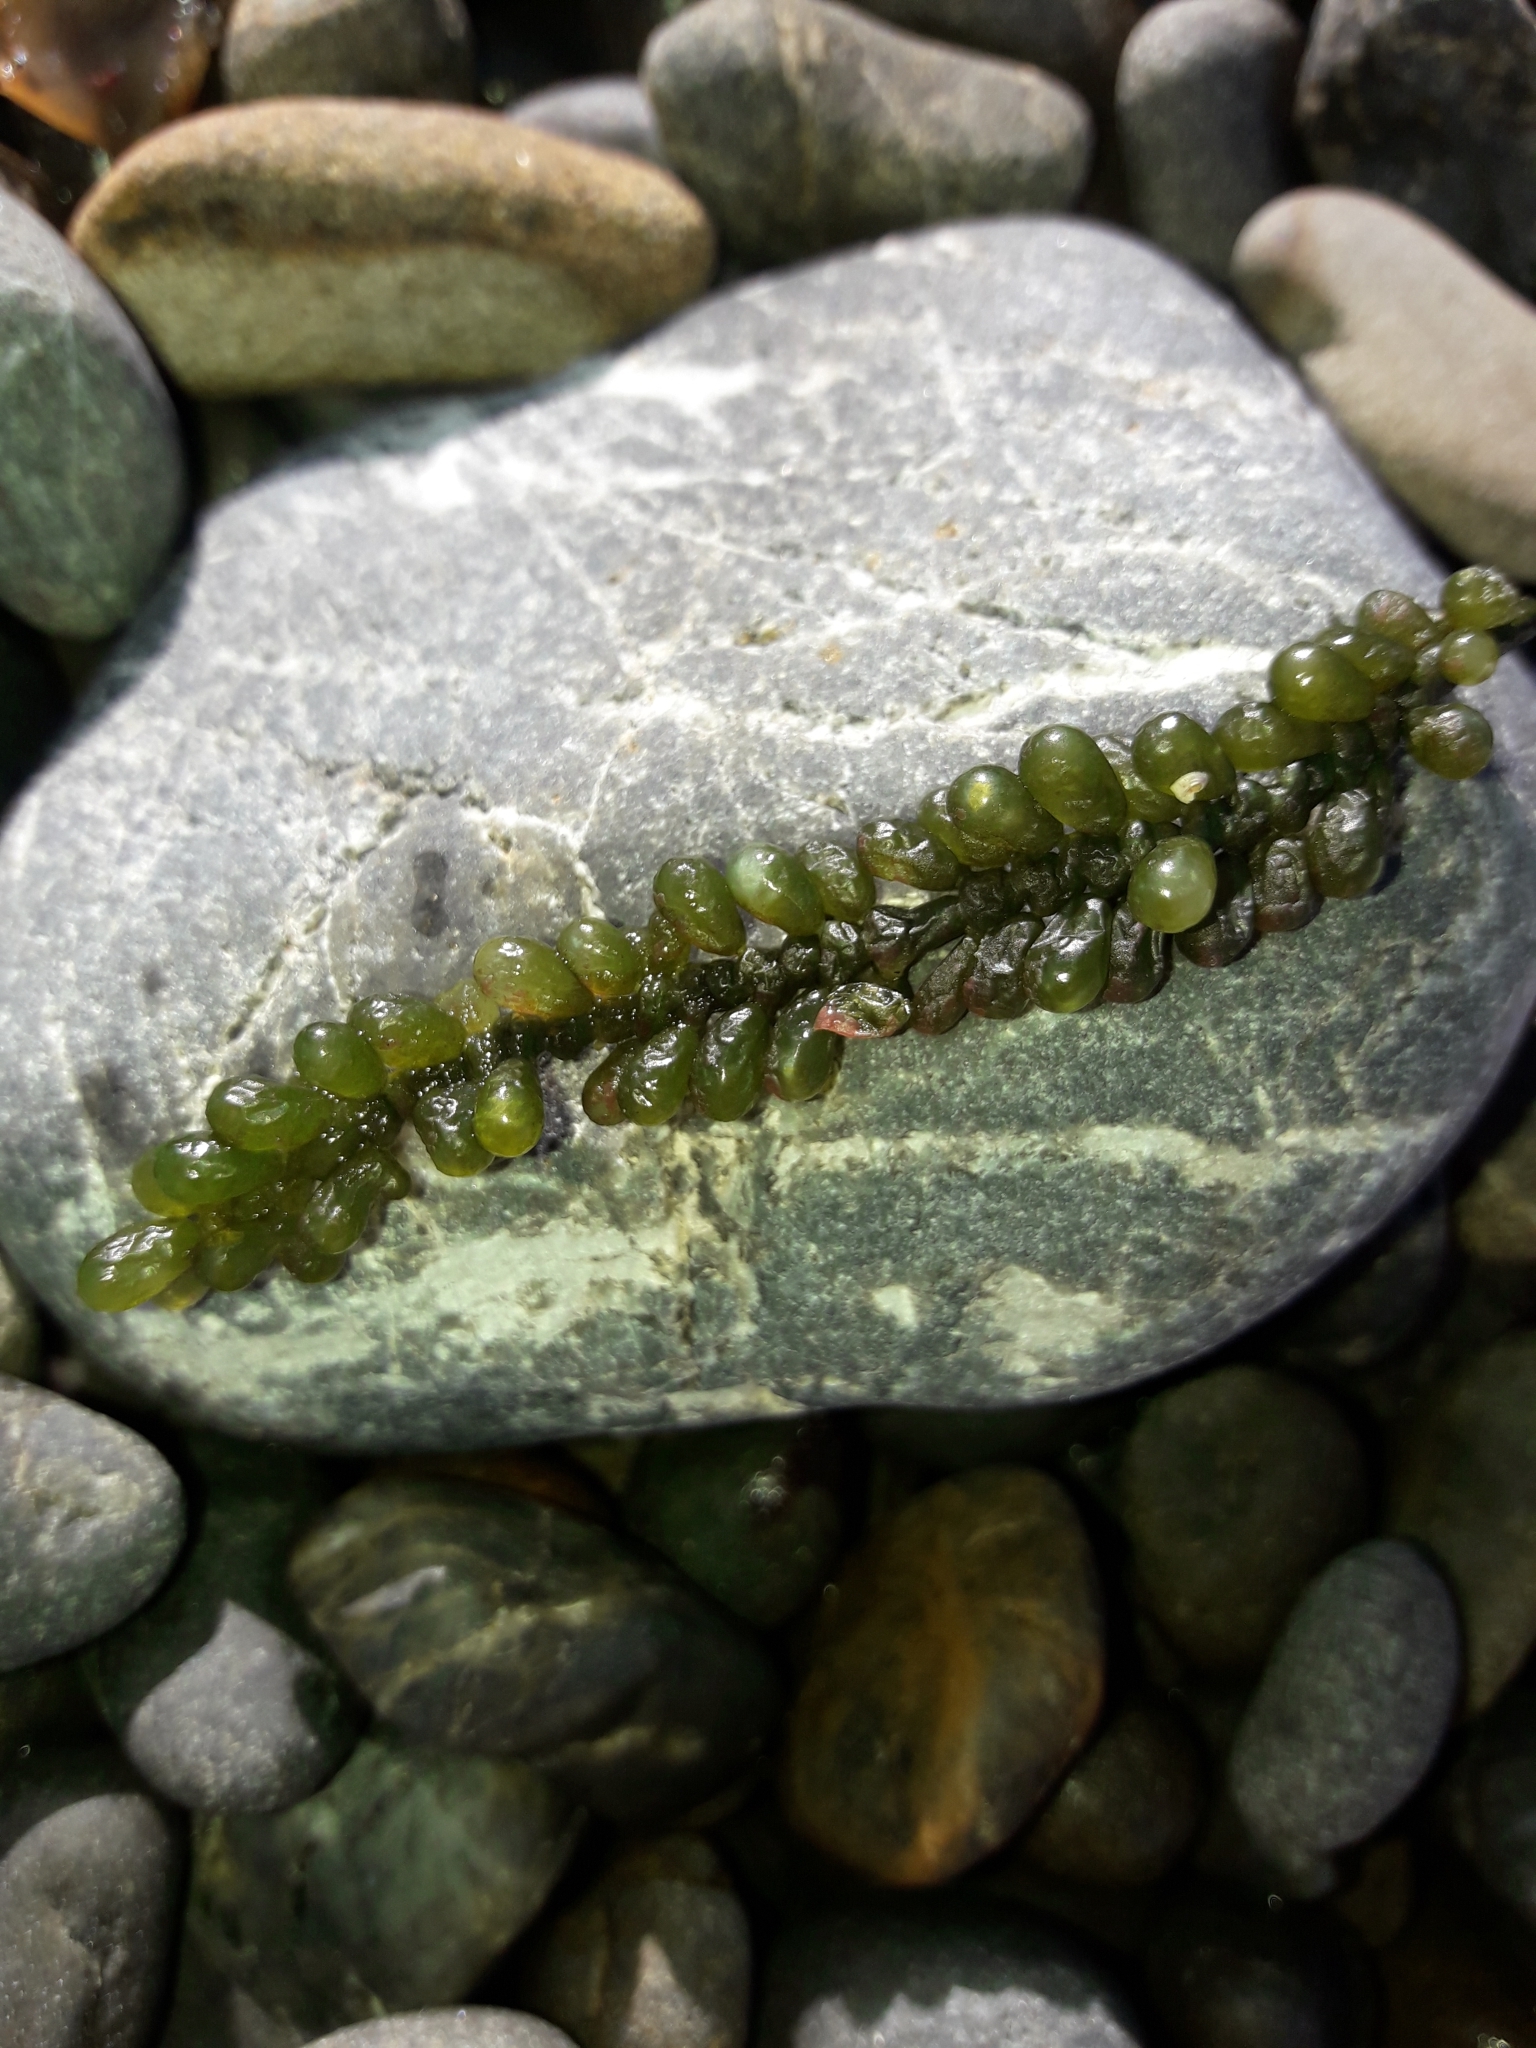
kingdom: Plantae
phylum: Chlorophyta
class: Ulvophyceae
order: Bryopsidales
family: Caulerpaceae
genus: Caulerpa
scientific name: Caulerpa geminata
